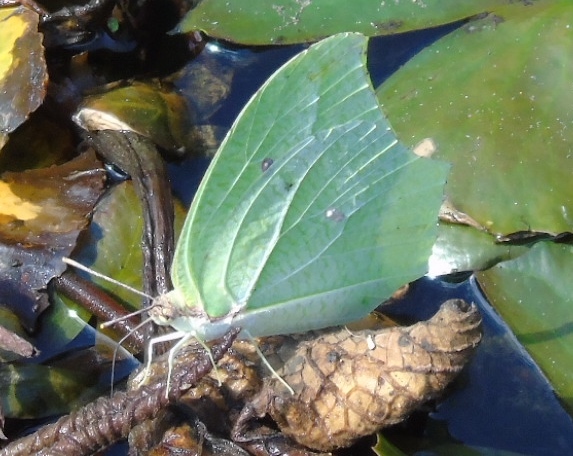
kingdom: Animalia
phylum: Arthropoda
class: Insecta
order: Lepidoptera
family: Pieridae
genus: Anteos
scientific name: Anteos maerula
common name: Angled sulphur
